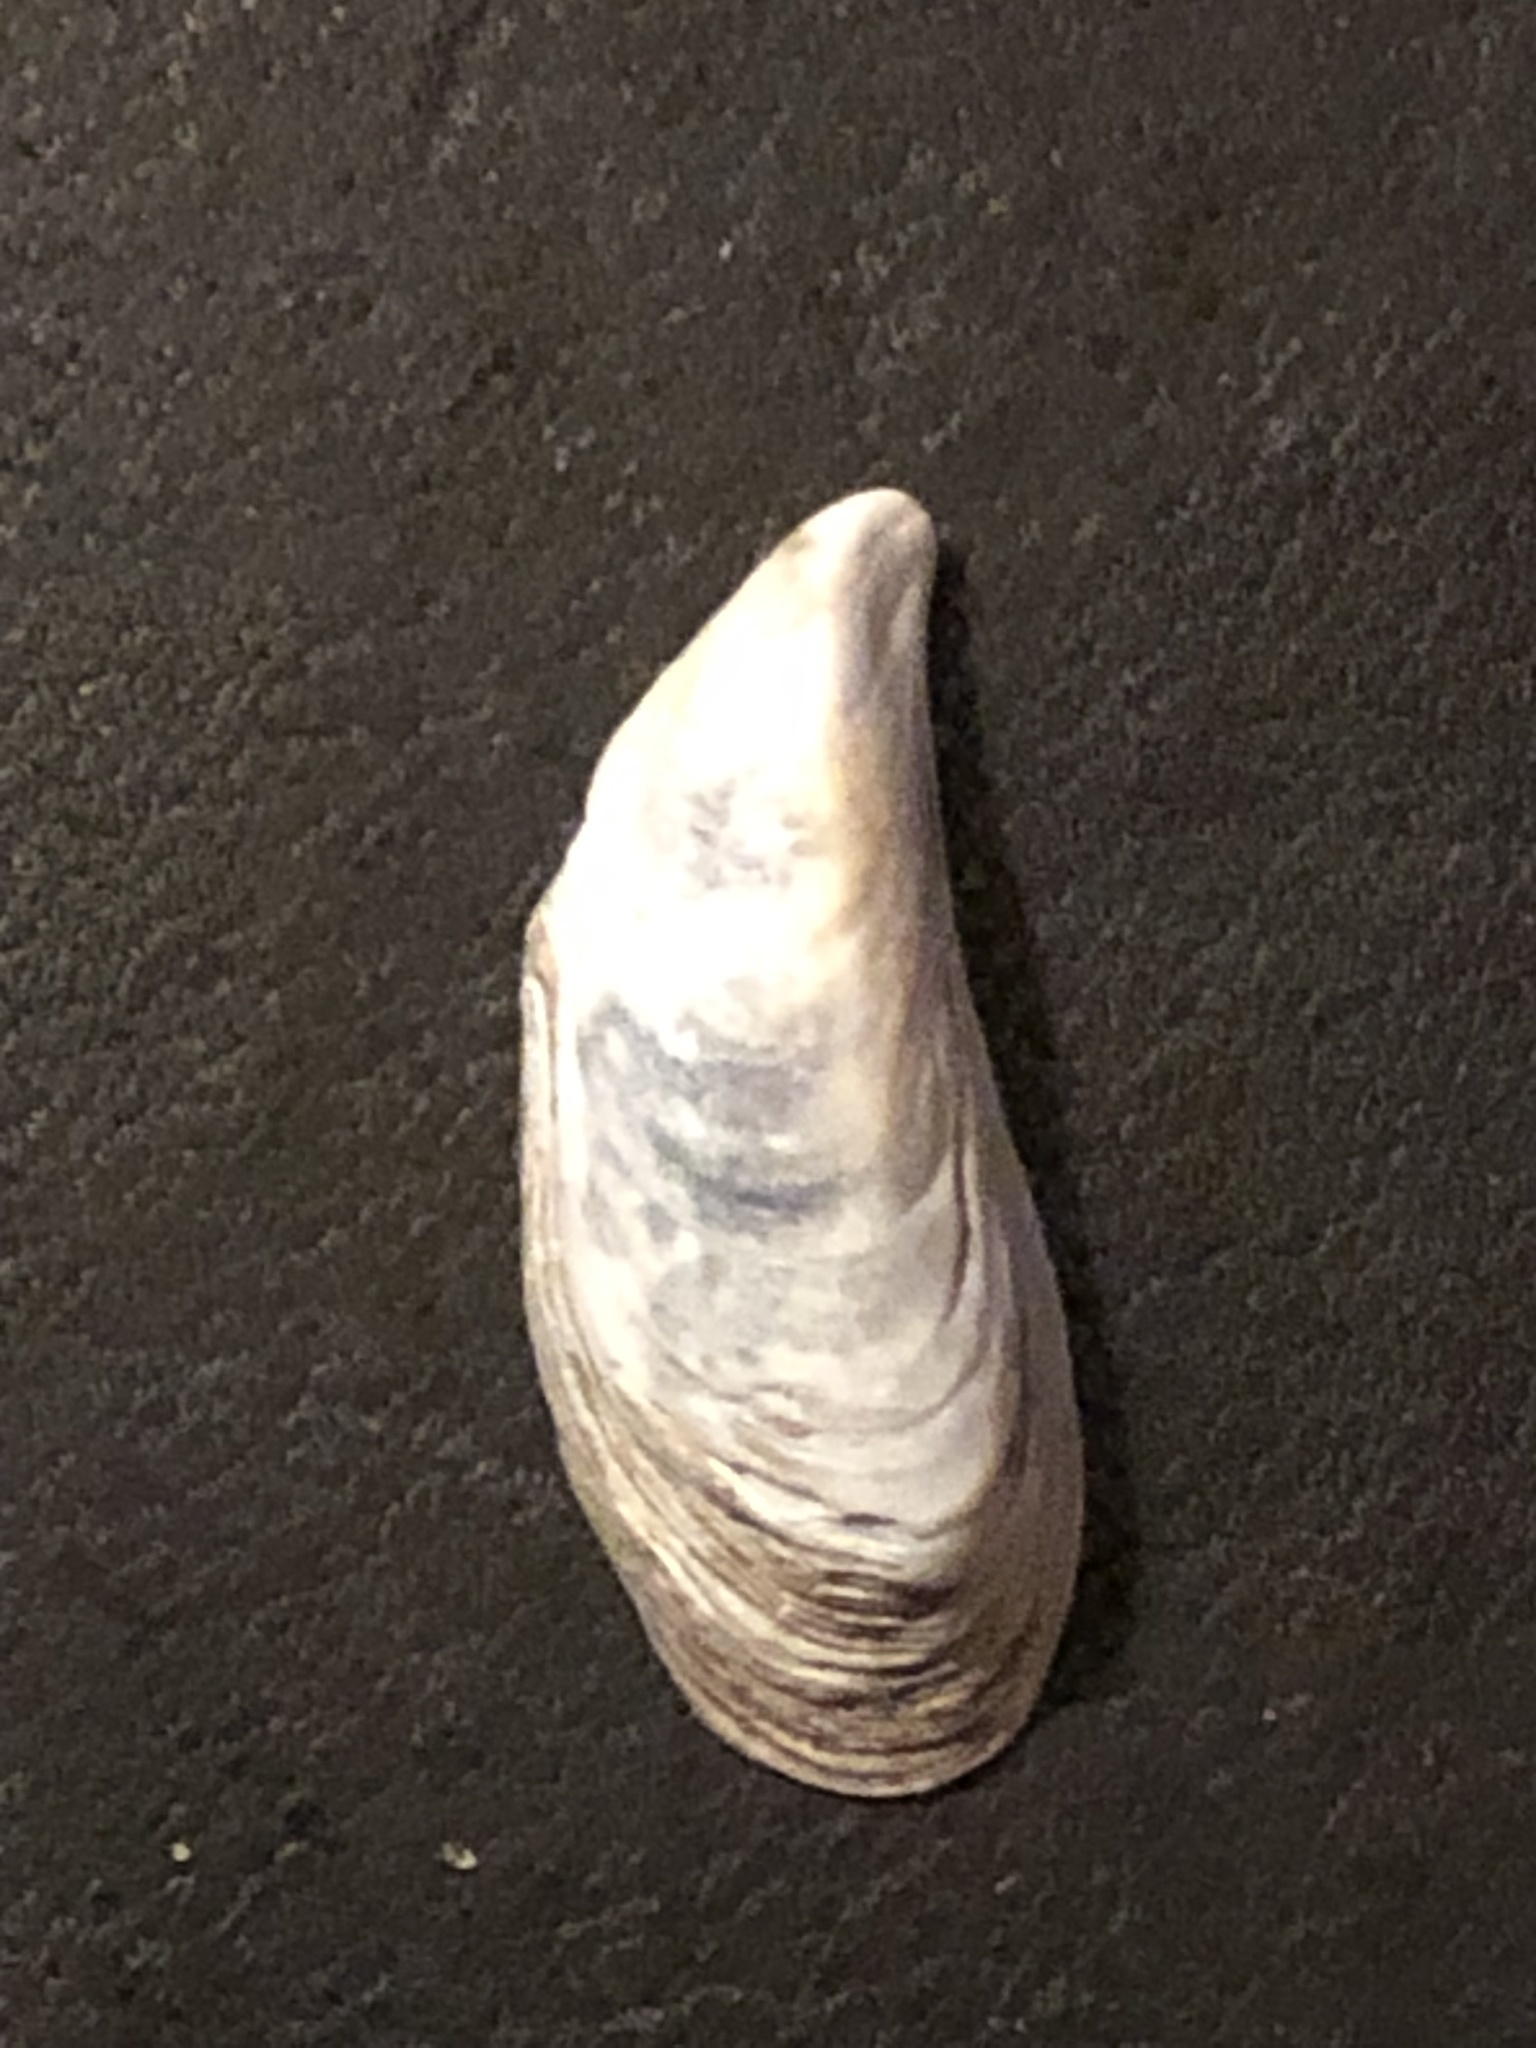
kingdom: Animalia
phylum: Mollusca
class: Bivalvia
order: Myida
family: Dreissenidae
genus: Dreissena
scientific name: Dreissena bugensis
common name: Quagga mussel
